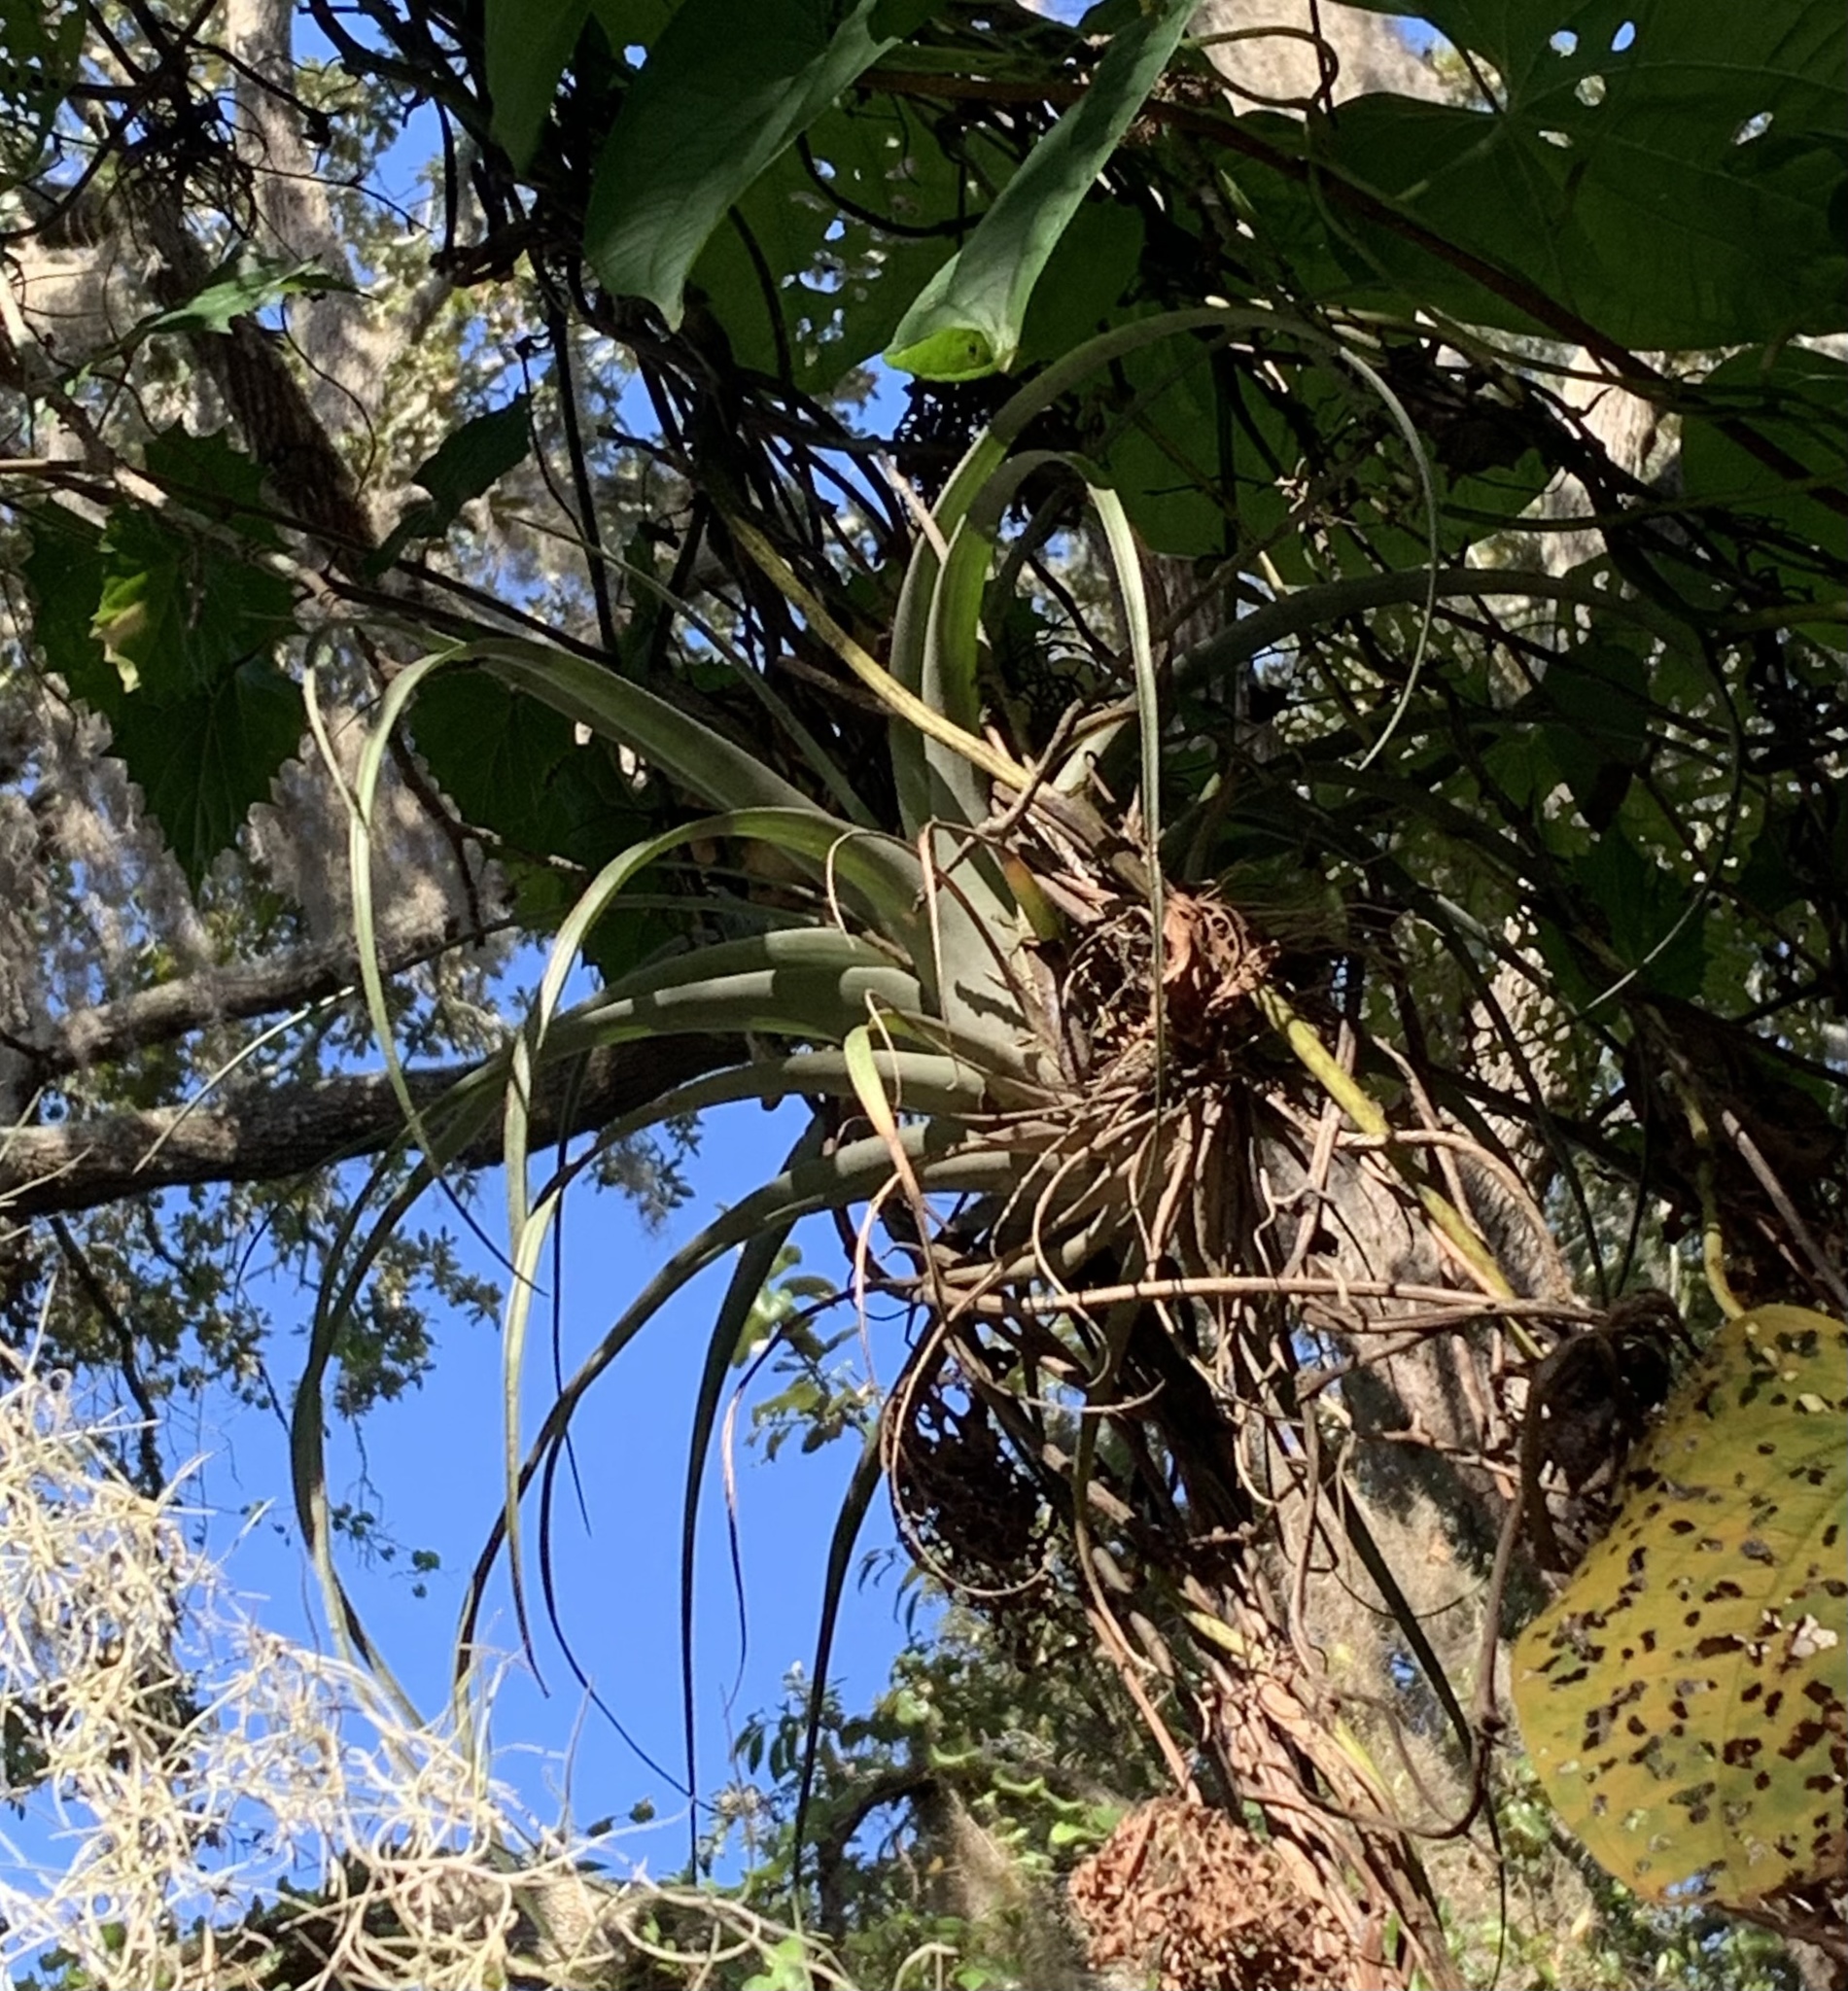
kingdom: Plantae
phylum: Tracheophyta
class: Liliopsida
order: Poales
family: Bromeliaceae
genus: Tillandsia
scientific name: Tillandsia utriculata
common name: Wild pine
